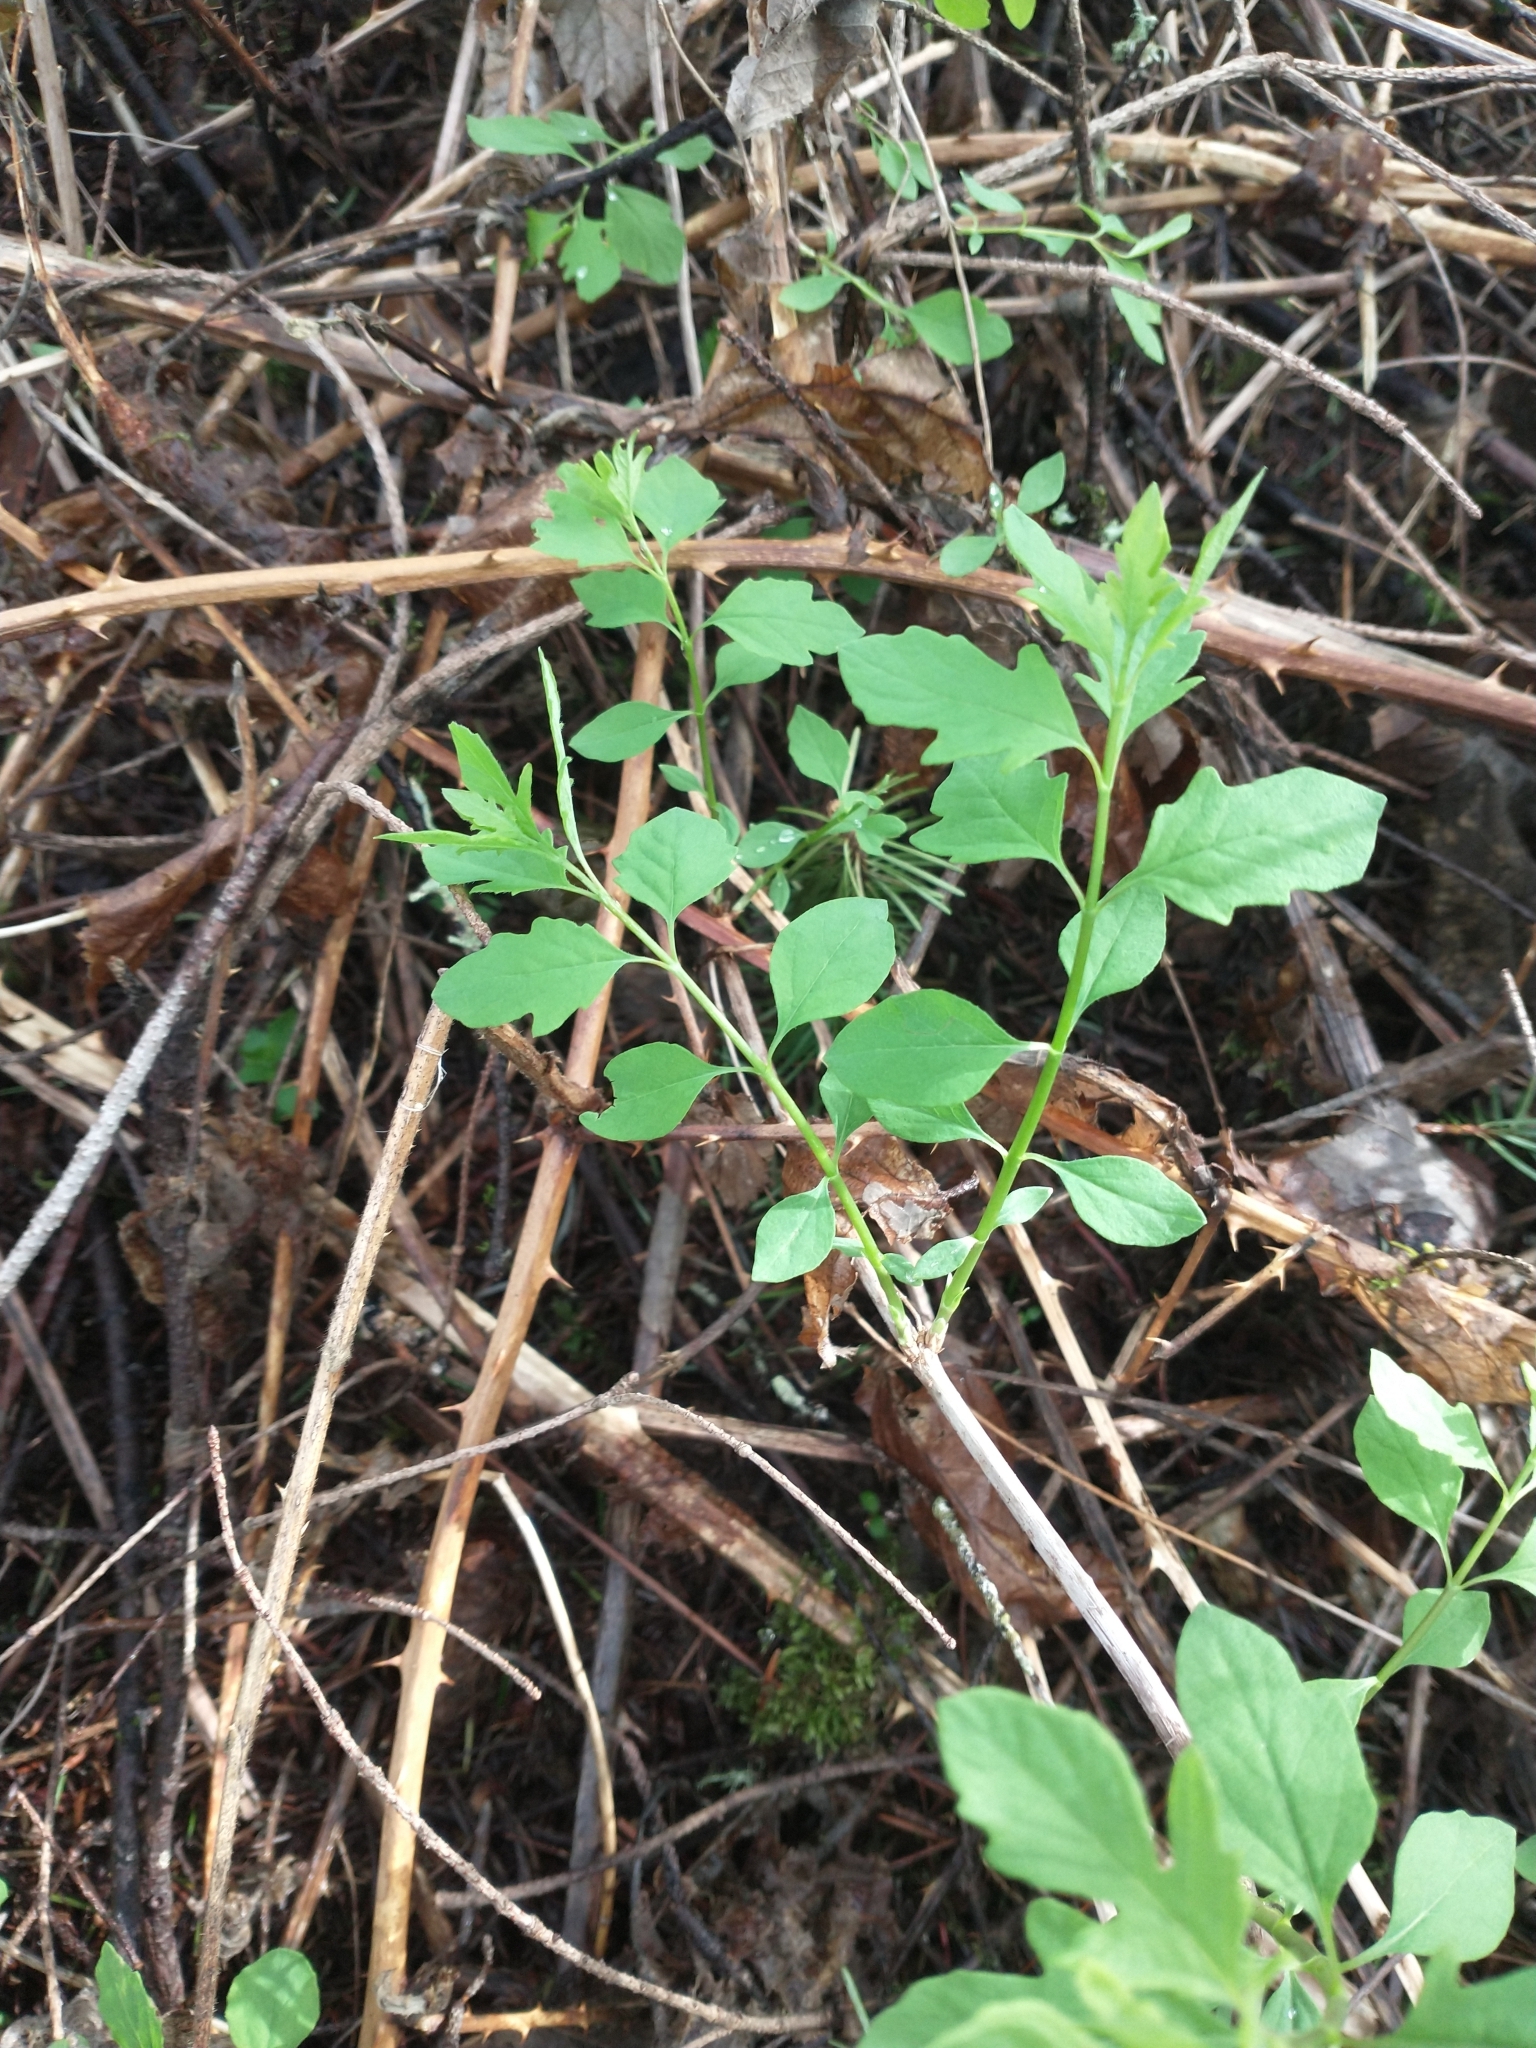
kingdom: Plantae
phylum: Tracheophyta
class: Magnoliopsida
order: Dipsacales
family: Caprifoliaceae
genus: Symphoricarpos
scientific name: Symphoricarpos mollis
